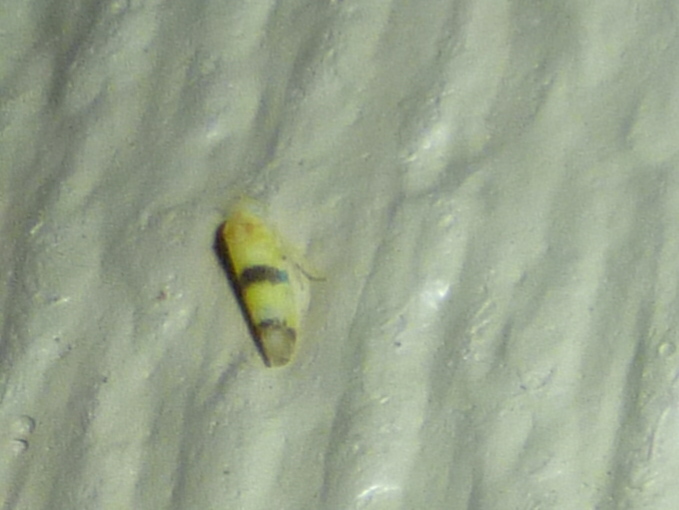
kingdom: Animalia
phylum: Arthropoda
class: Insecta
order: Hemiptera
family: Cicadellidae
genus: Empoa
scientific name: Empoa gillettei
